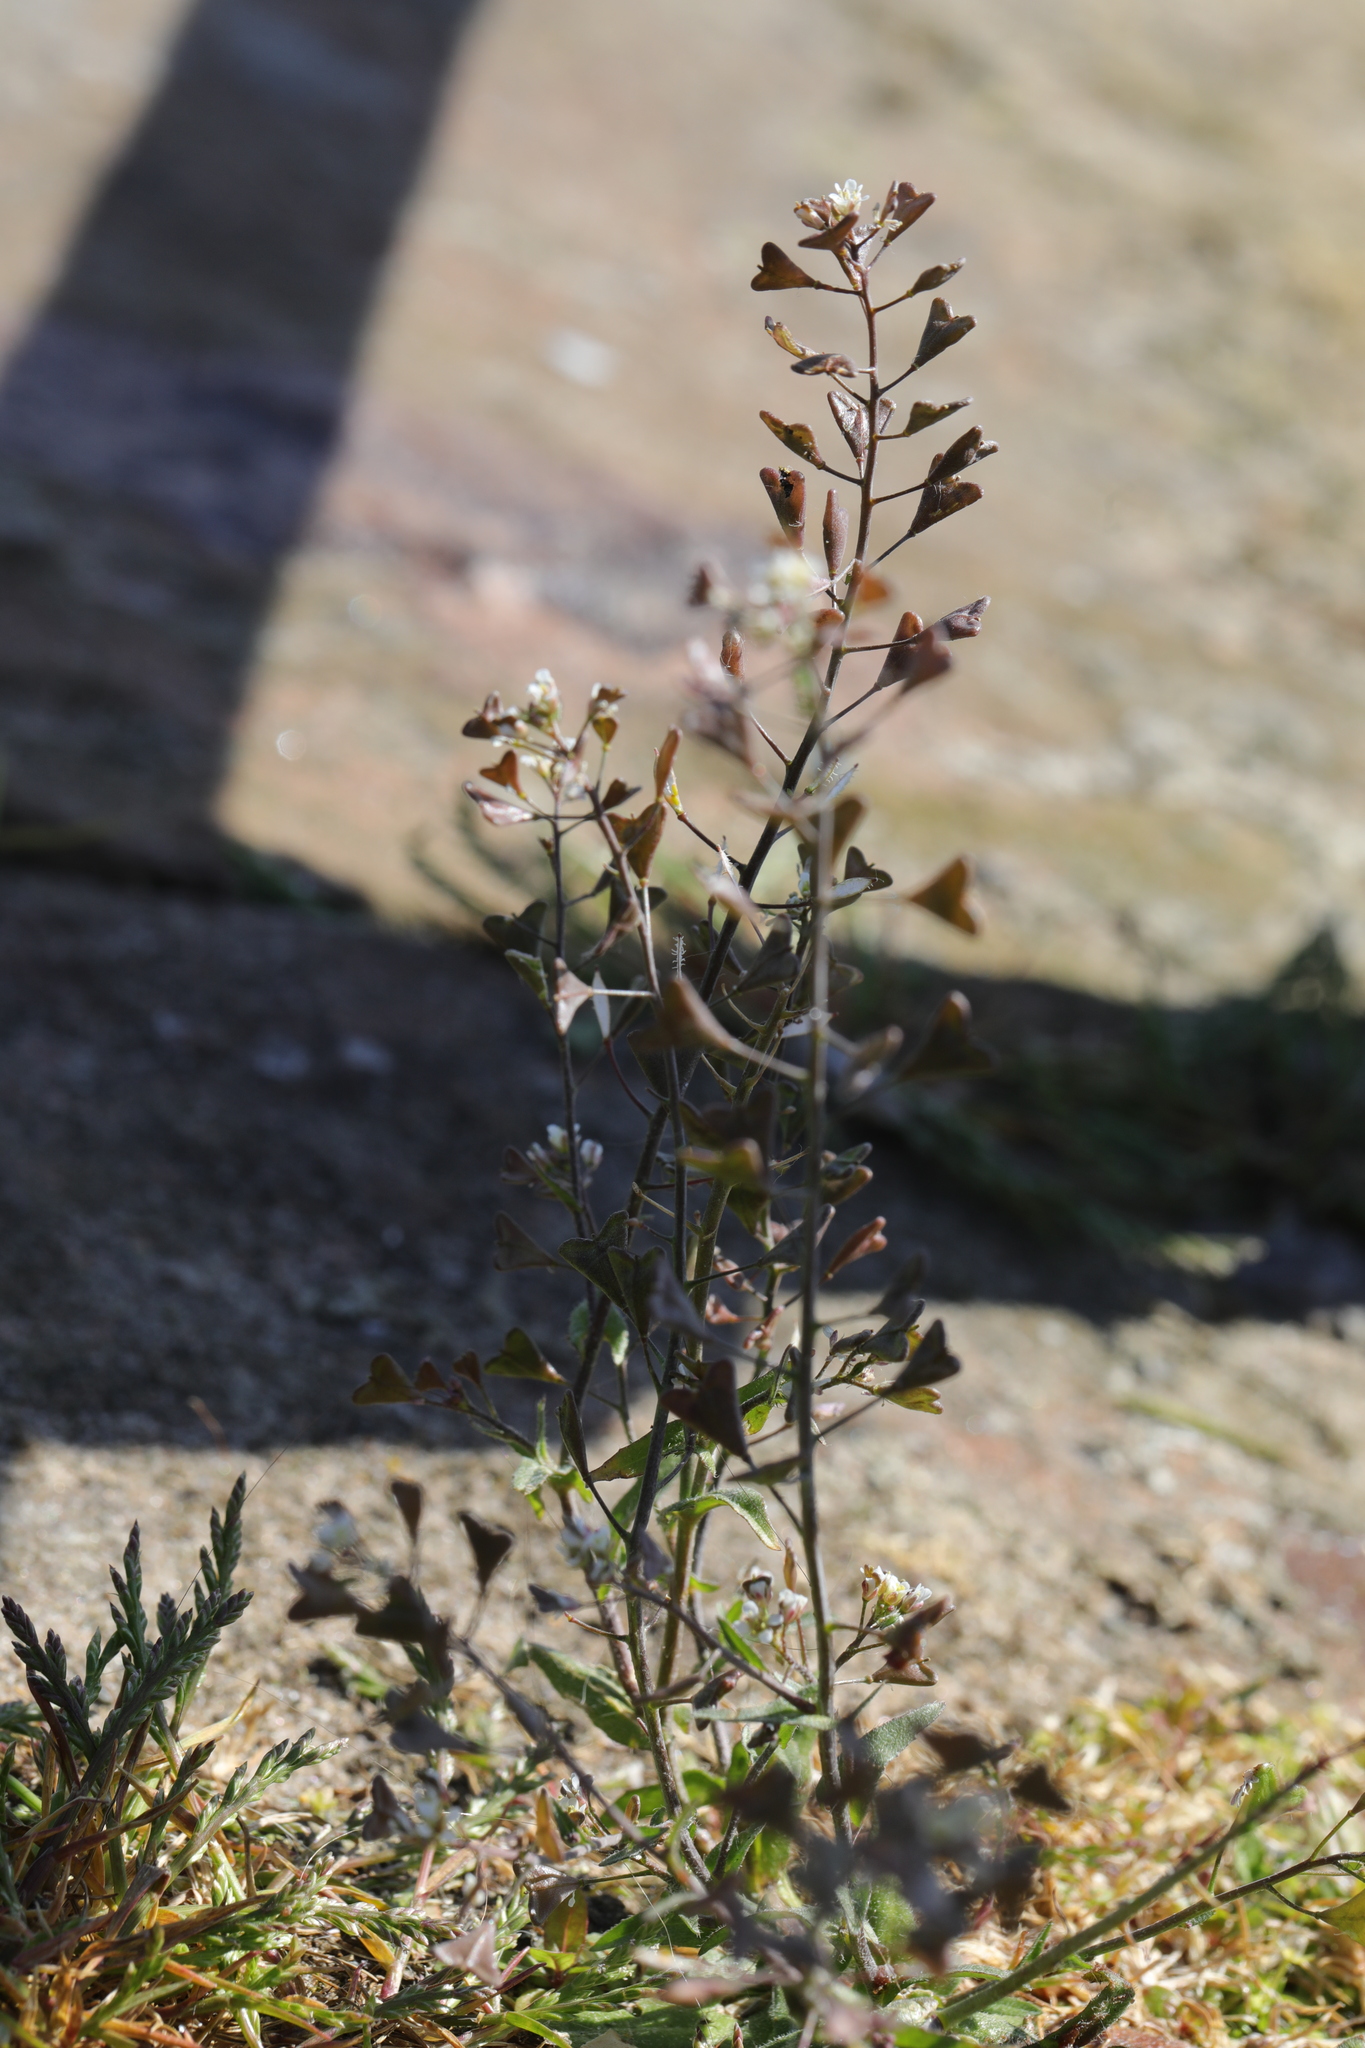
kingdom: Plantae
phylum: Tracheophyta
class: Magnoliopsida
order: Brassicales
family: Brassicaceae
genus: Capsella
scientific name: Capsella bursa-pastoris
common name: Shepherd's purse
